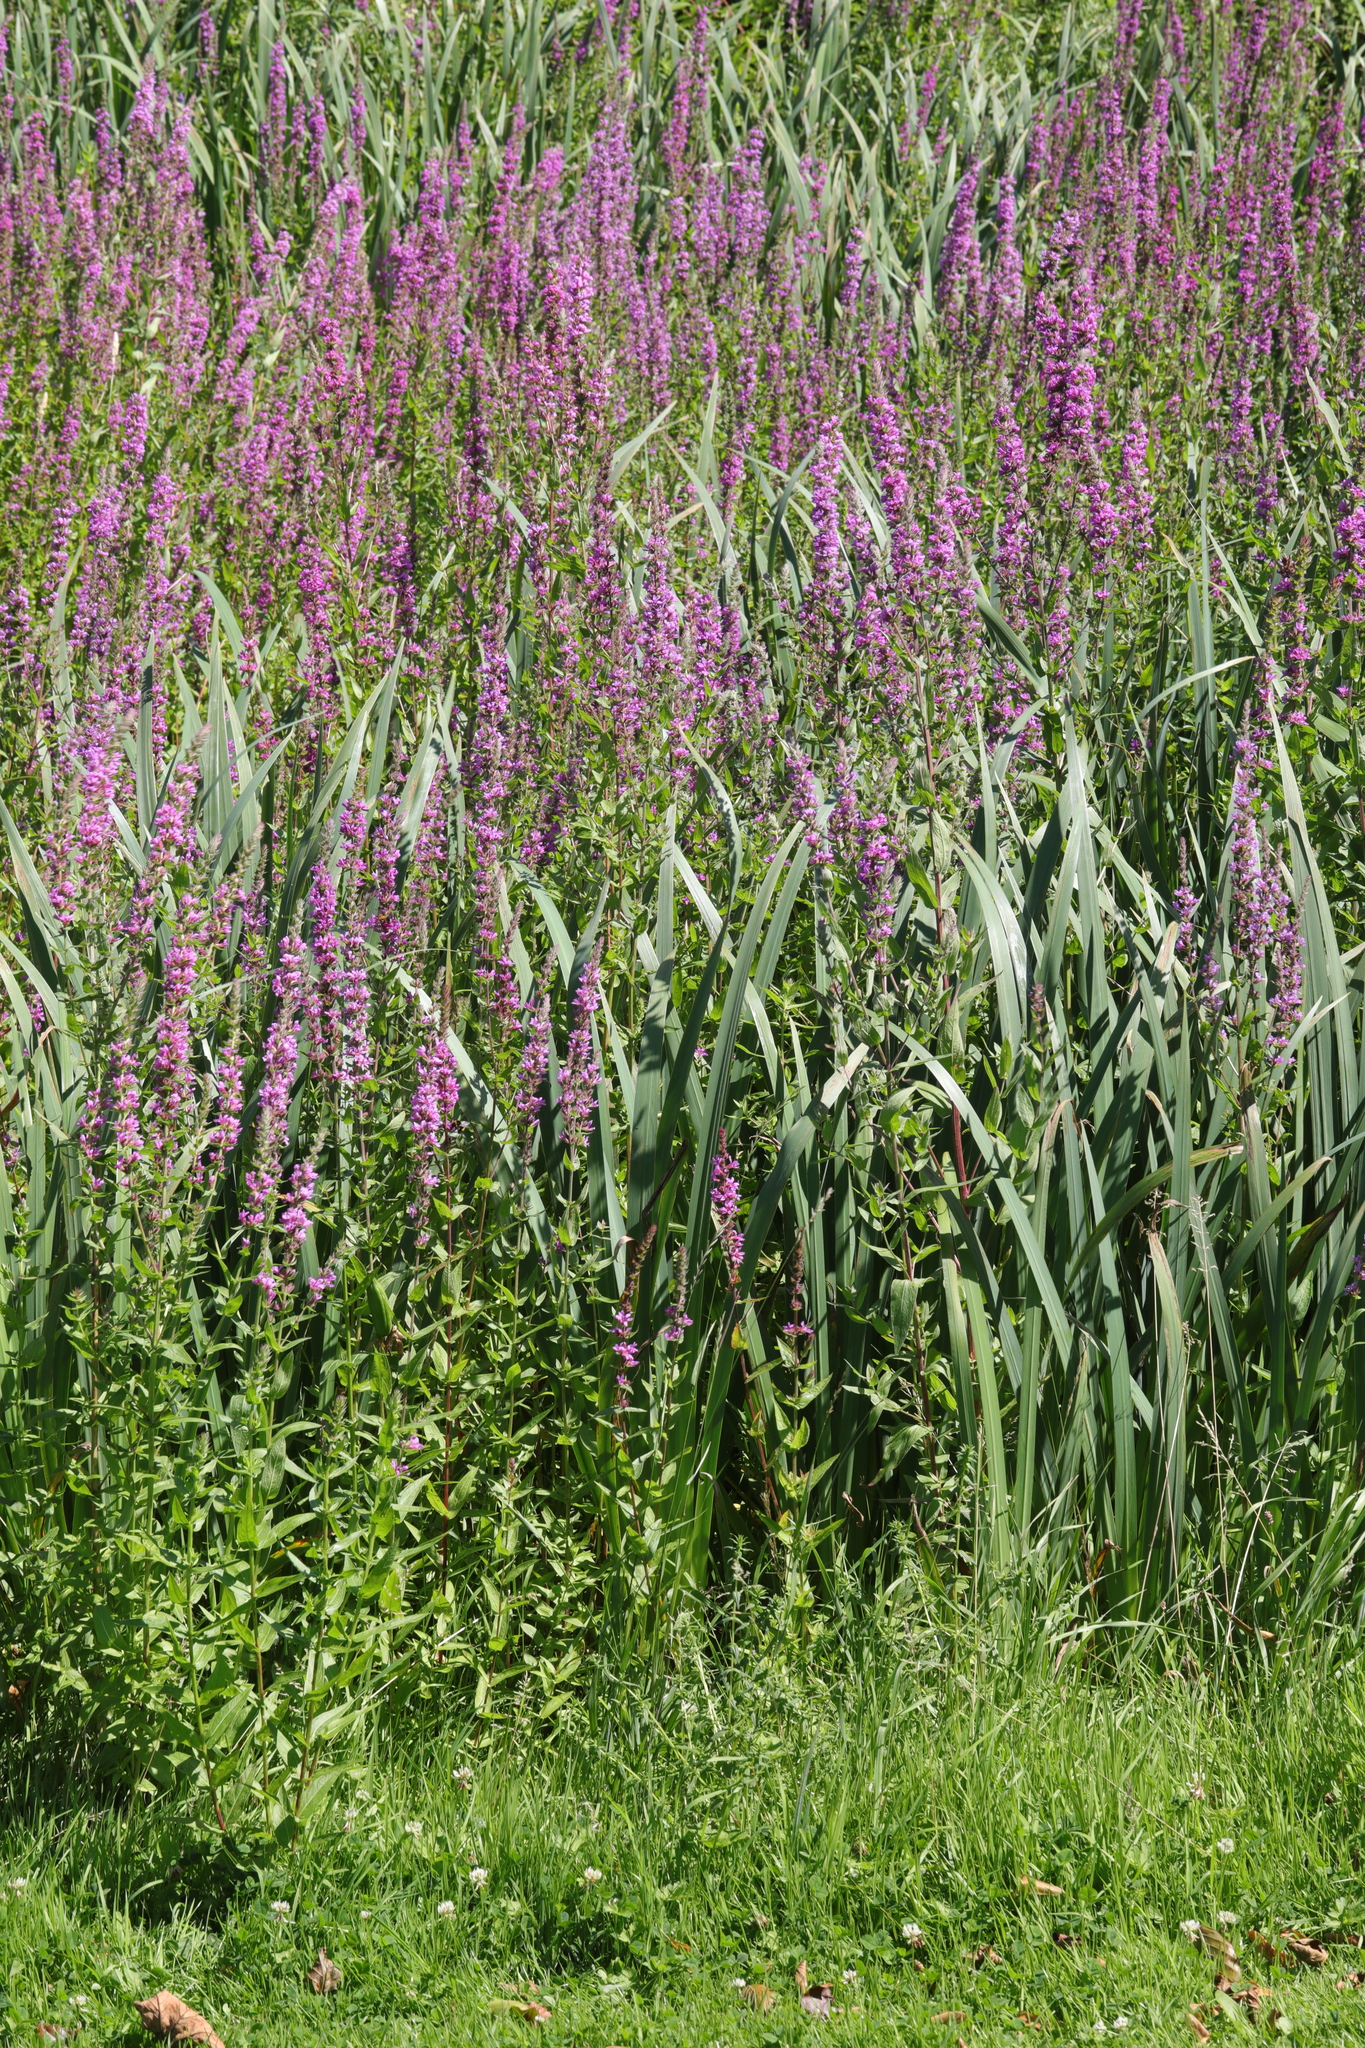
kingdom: Plantae
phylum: Tracheophyta
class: Magnoliopsida
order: Myrtales
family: Lythraceae
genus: Lythrum
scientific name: Lythrum salicaria
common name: Purple loosestrife
